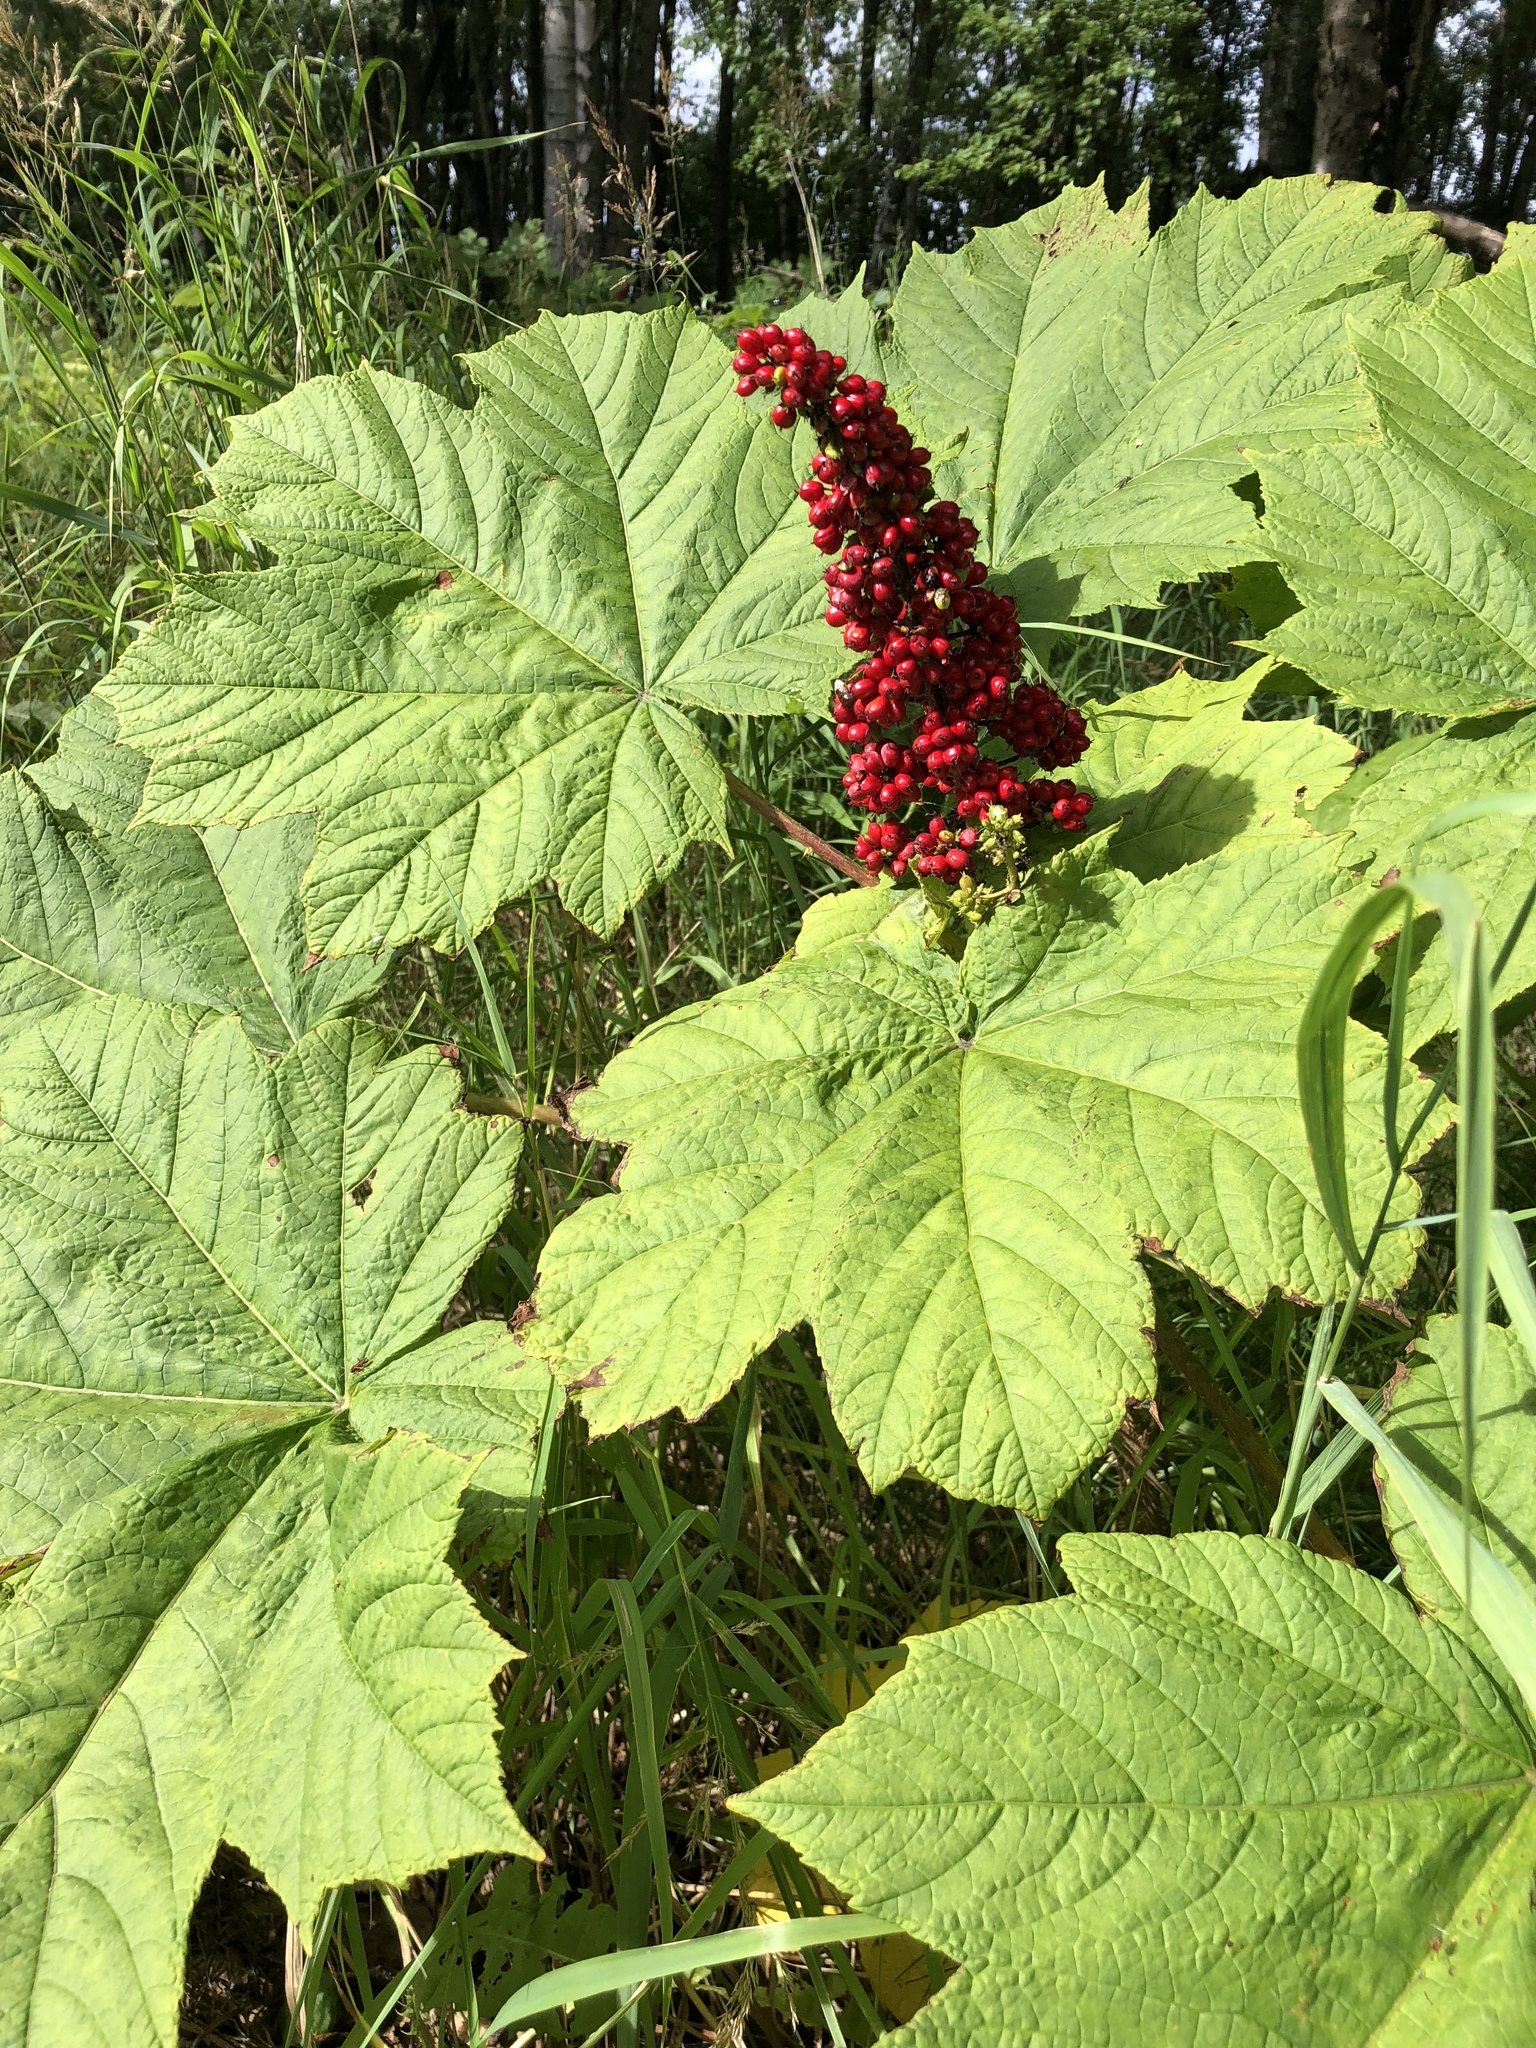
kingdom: Plantae
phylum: Tracheophyta
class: Magnoliopsida
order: Apiales
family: Araliaceae
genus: Oplopanax
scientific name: Oplopanax horridus
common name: Devil's walking-stick
